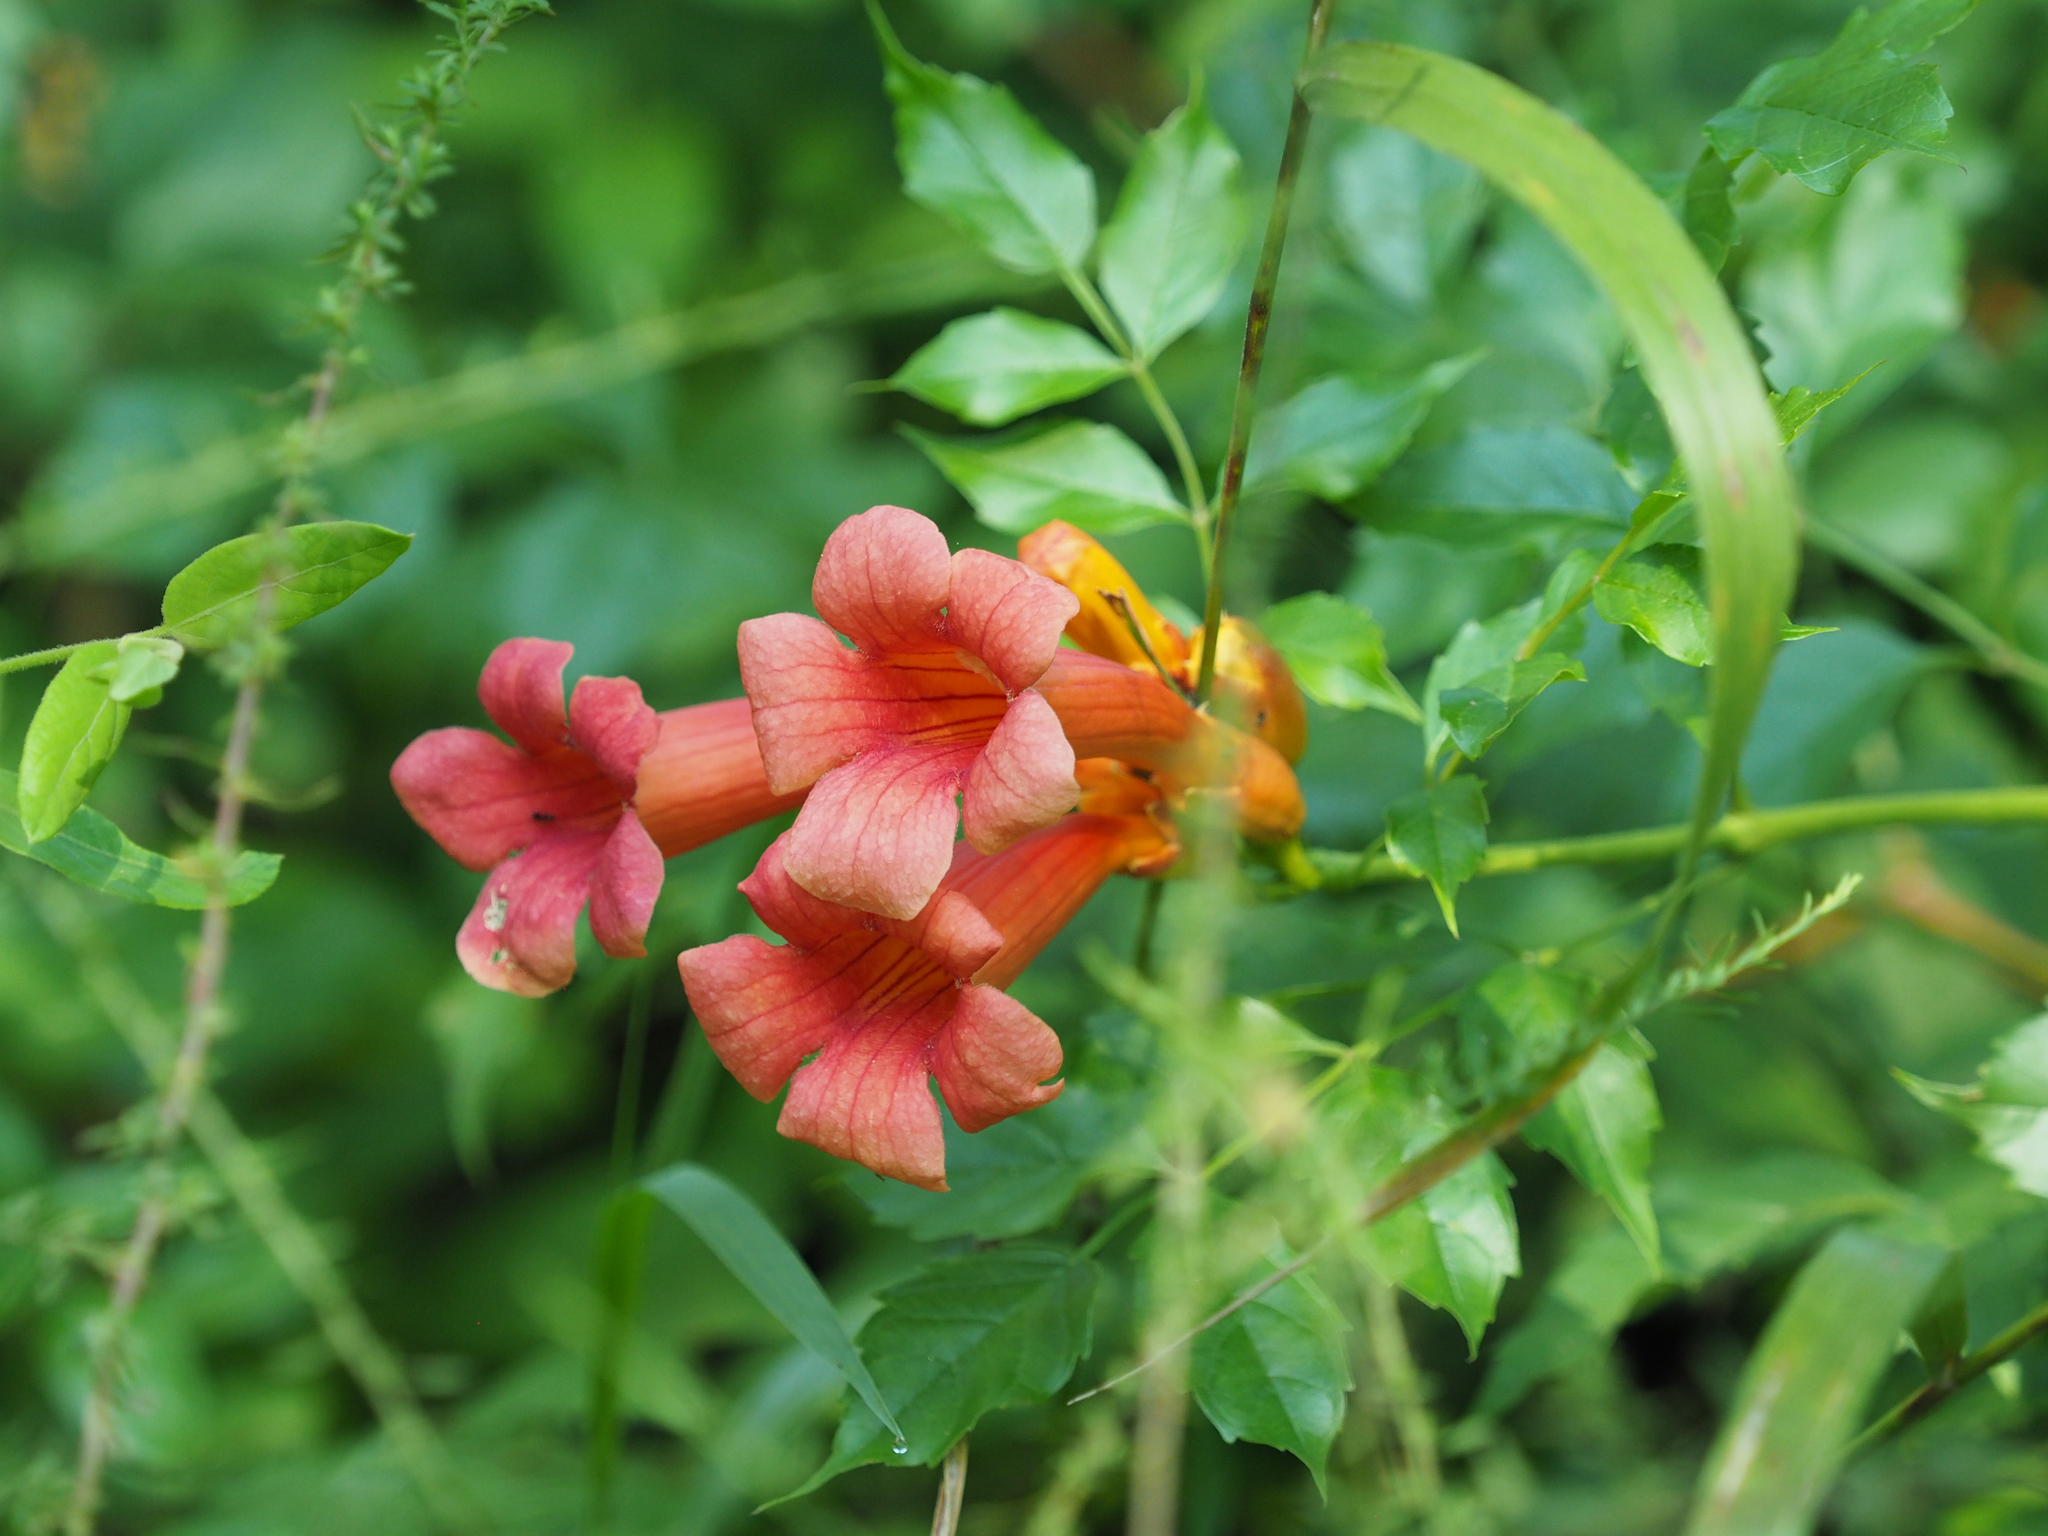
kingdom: Plantae
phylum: Tracheophyta
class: Magnoliopsida
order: Lamiales
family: Bignoniaceae
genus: Campsis
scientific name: Campsis radicans
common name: Trumpet-creeper
